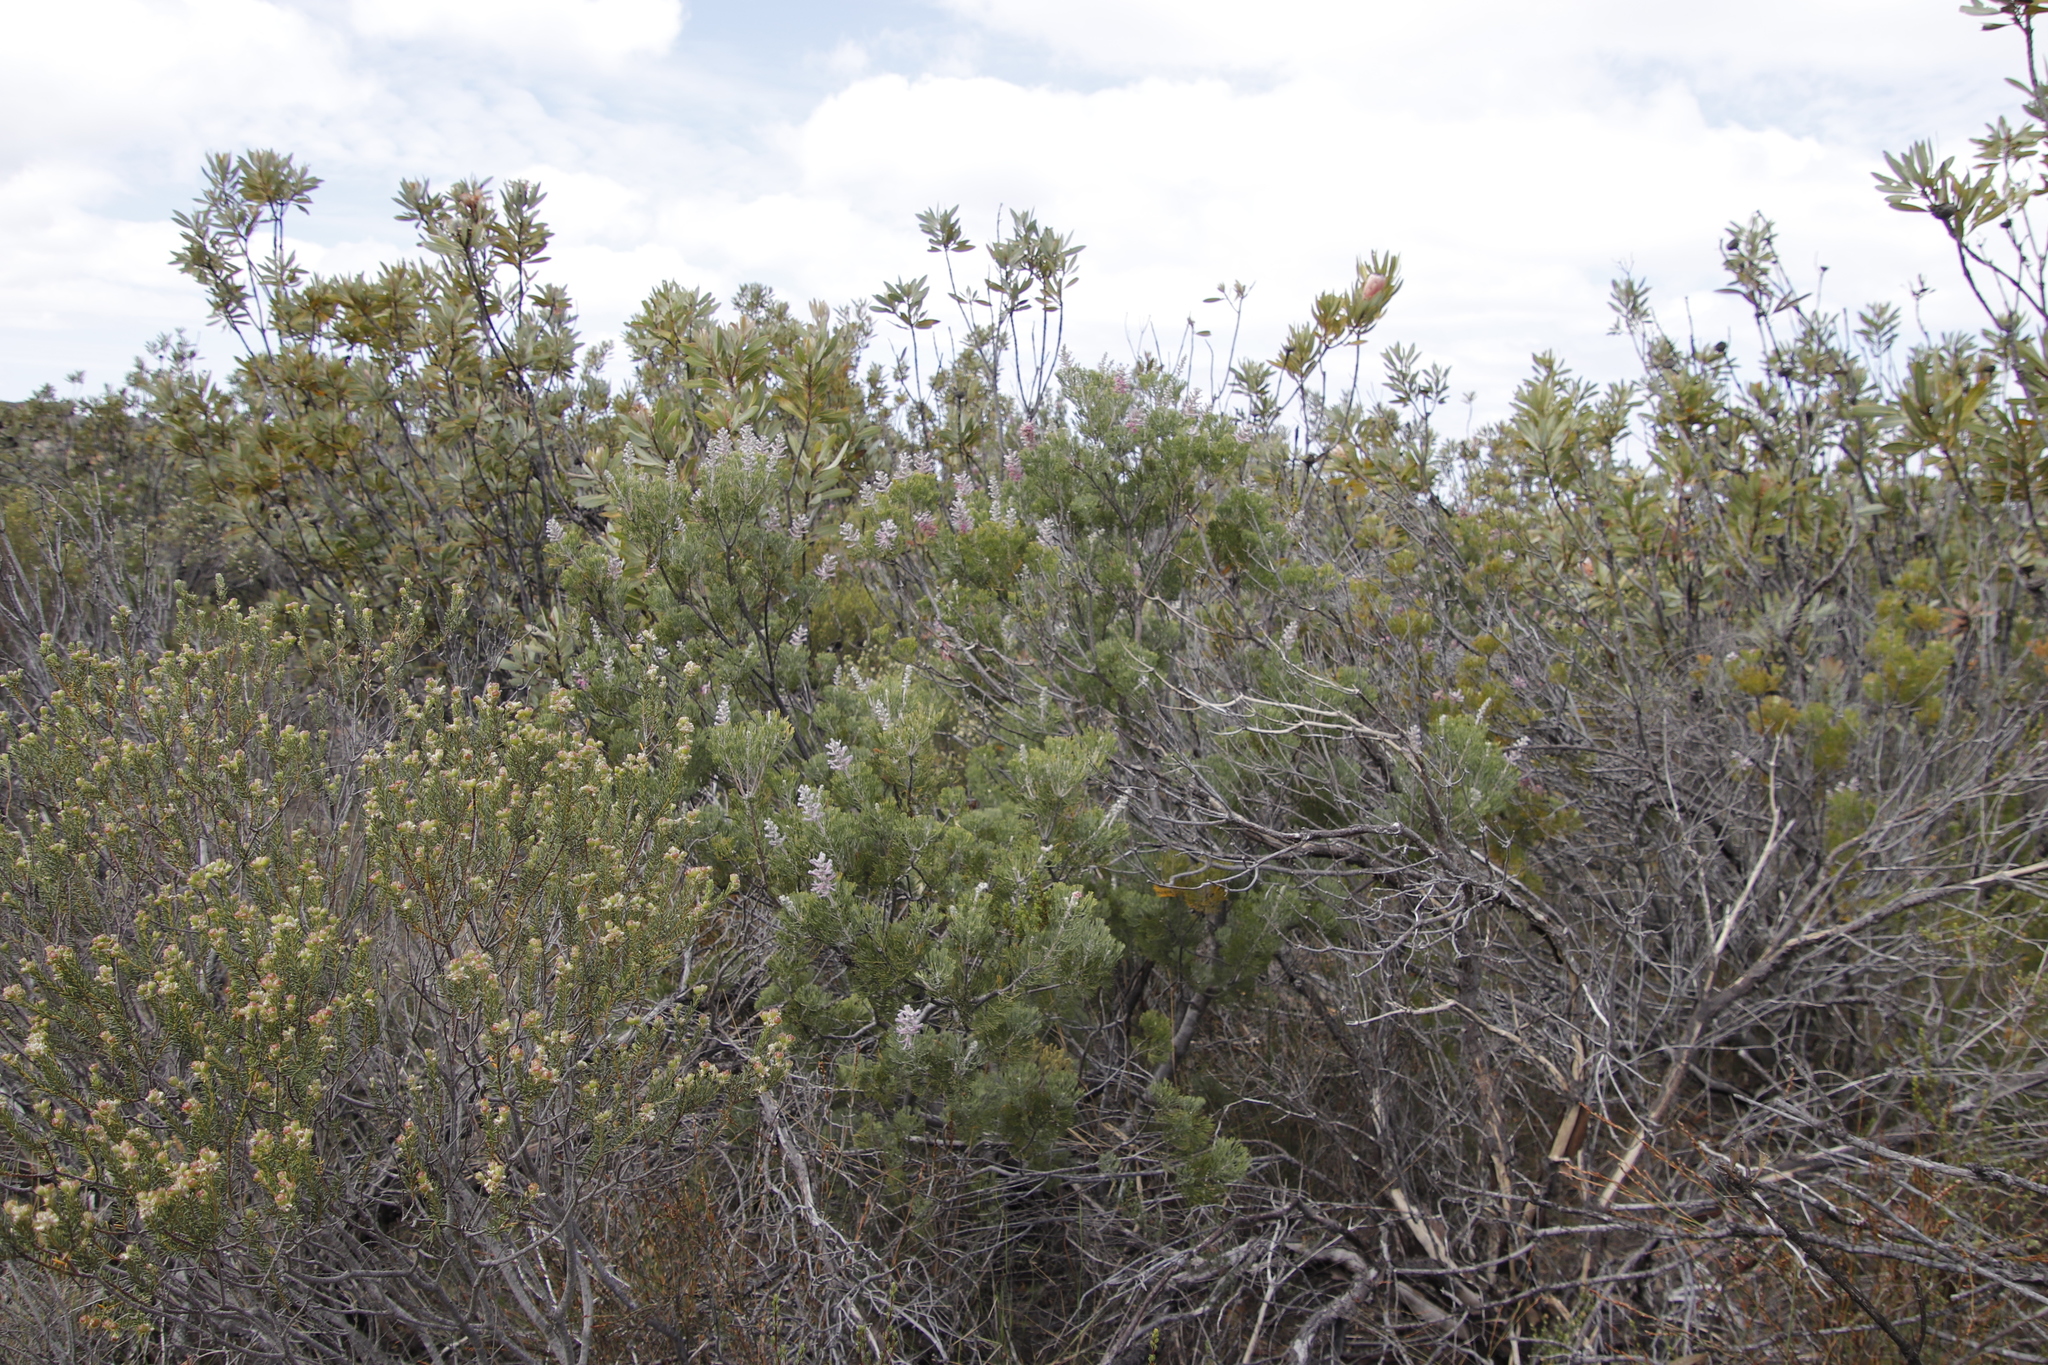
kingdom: Plantae
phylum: Tracheophyta
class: Magnoliopsida
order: Proteales
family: Proteaceae
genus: Paranomus
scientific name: Paranomus bracteolaris
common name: Bokkeveld tree sceptre
